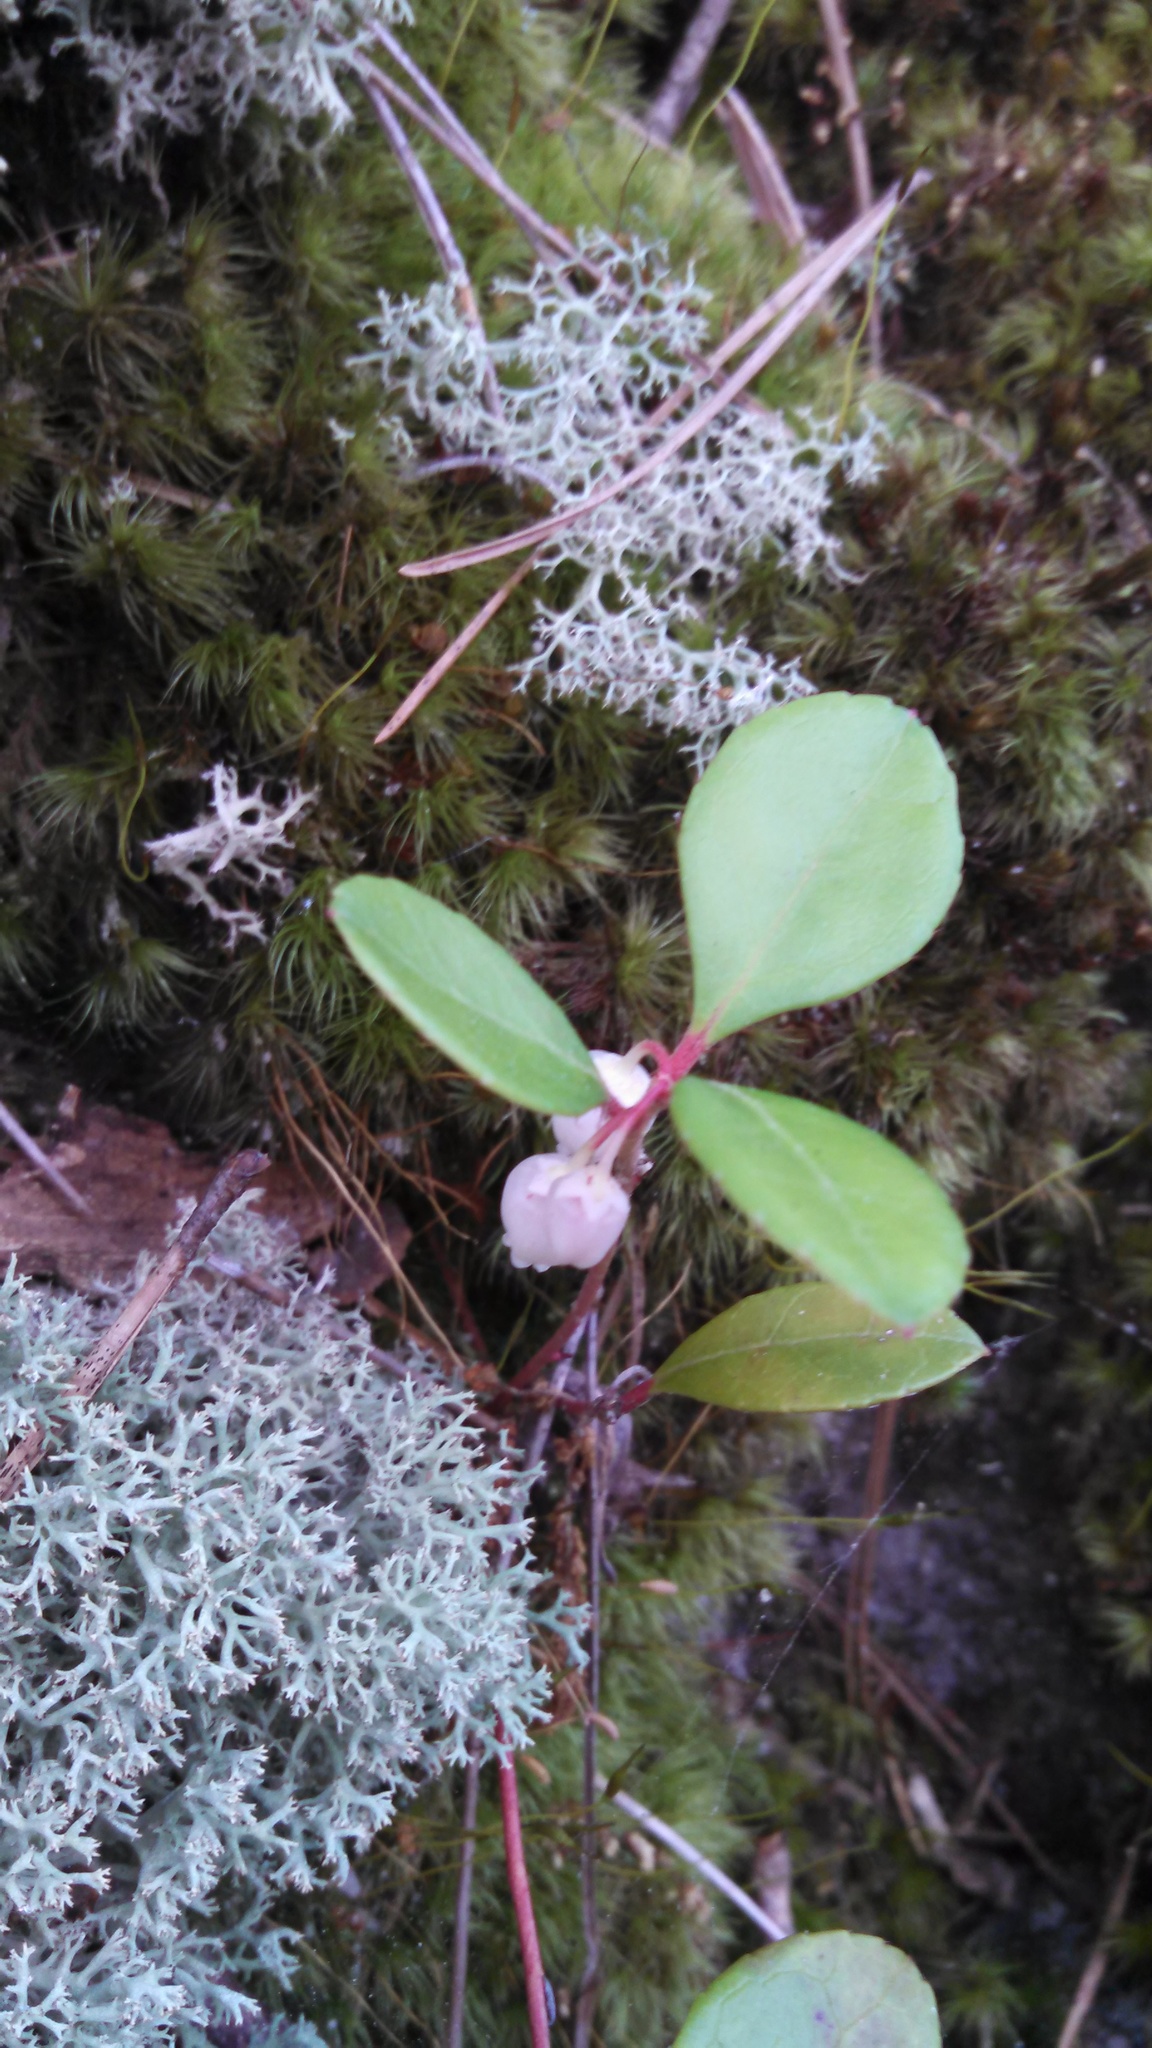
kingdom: Plantae
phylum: Tracheophyta
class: Magnoliopsida
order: Ericales
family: Ericaceae
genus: Gaultheria
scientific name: Gaultheria procumbens
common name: Checkerberry
